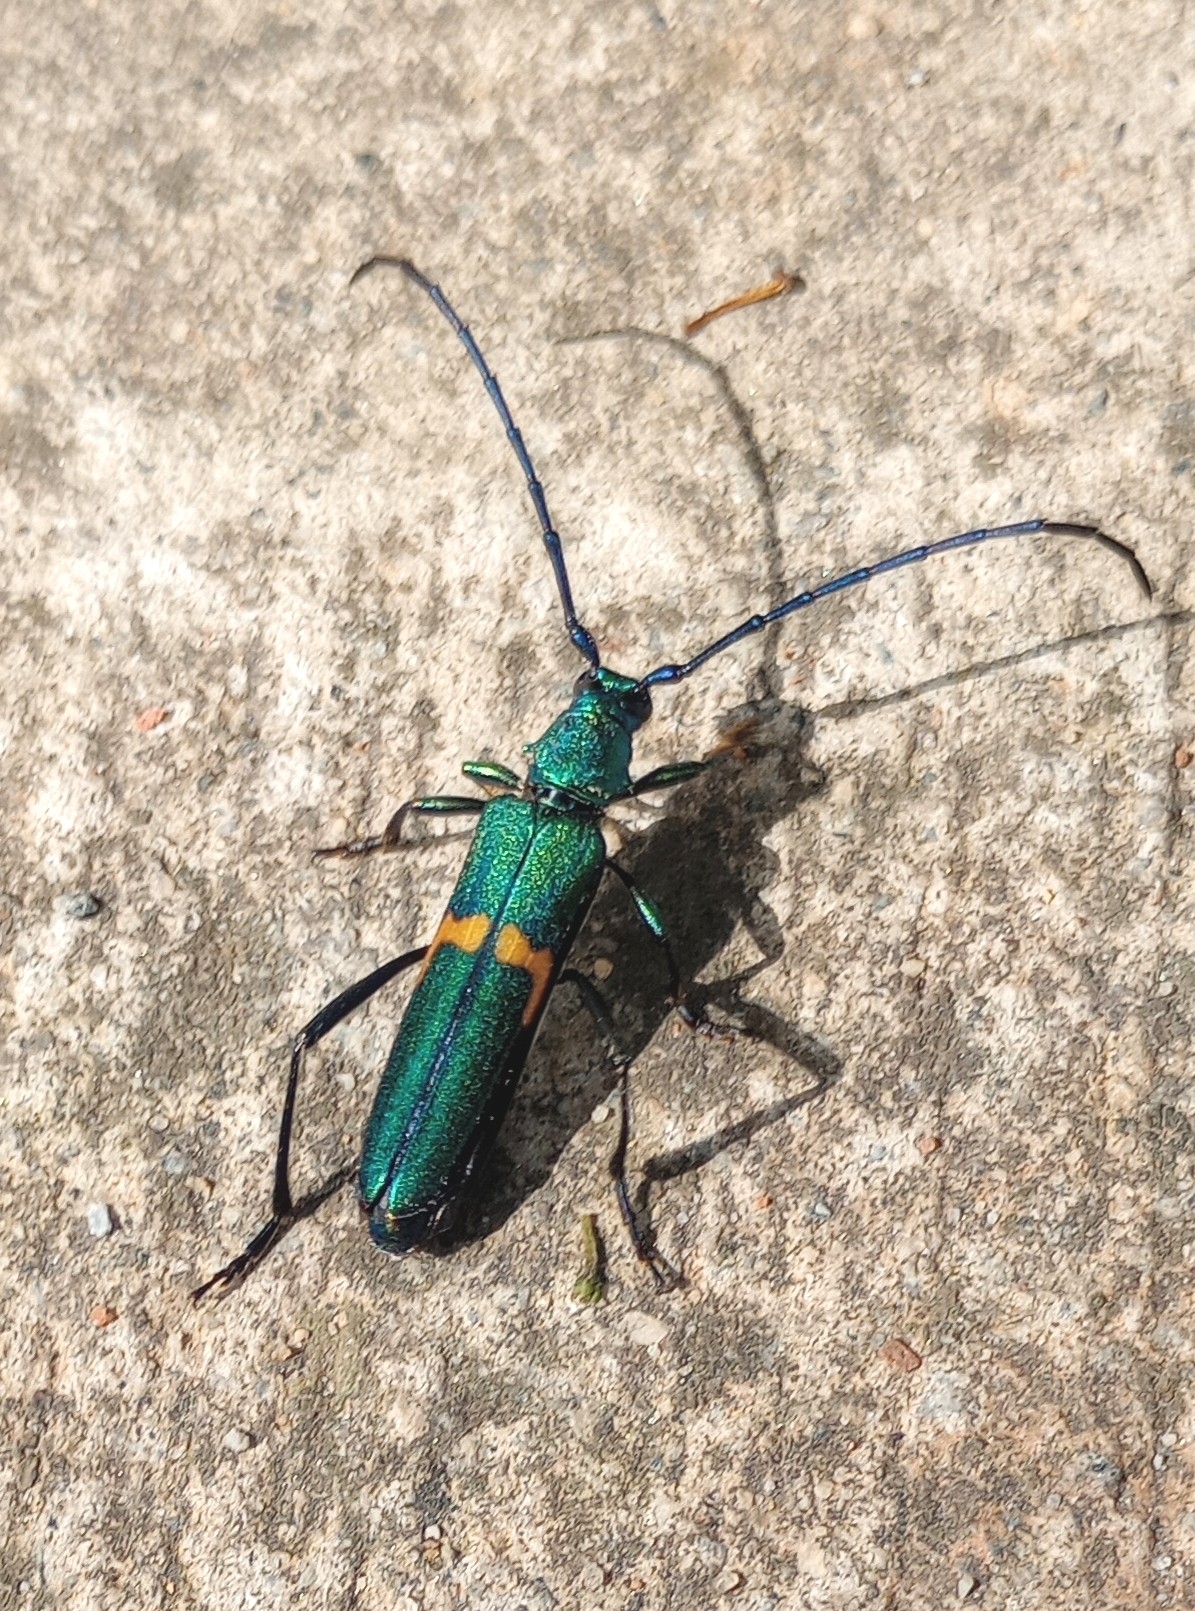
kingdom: Animalia
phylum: Arthropoda
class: Insecta
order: Coleoptera
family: Cerambycidae
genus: Chelidonium
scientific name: Chelidonium cinctum
